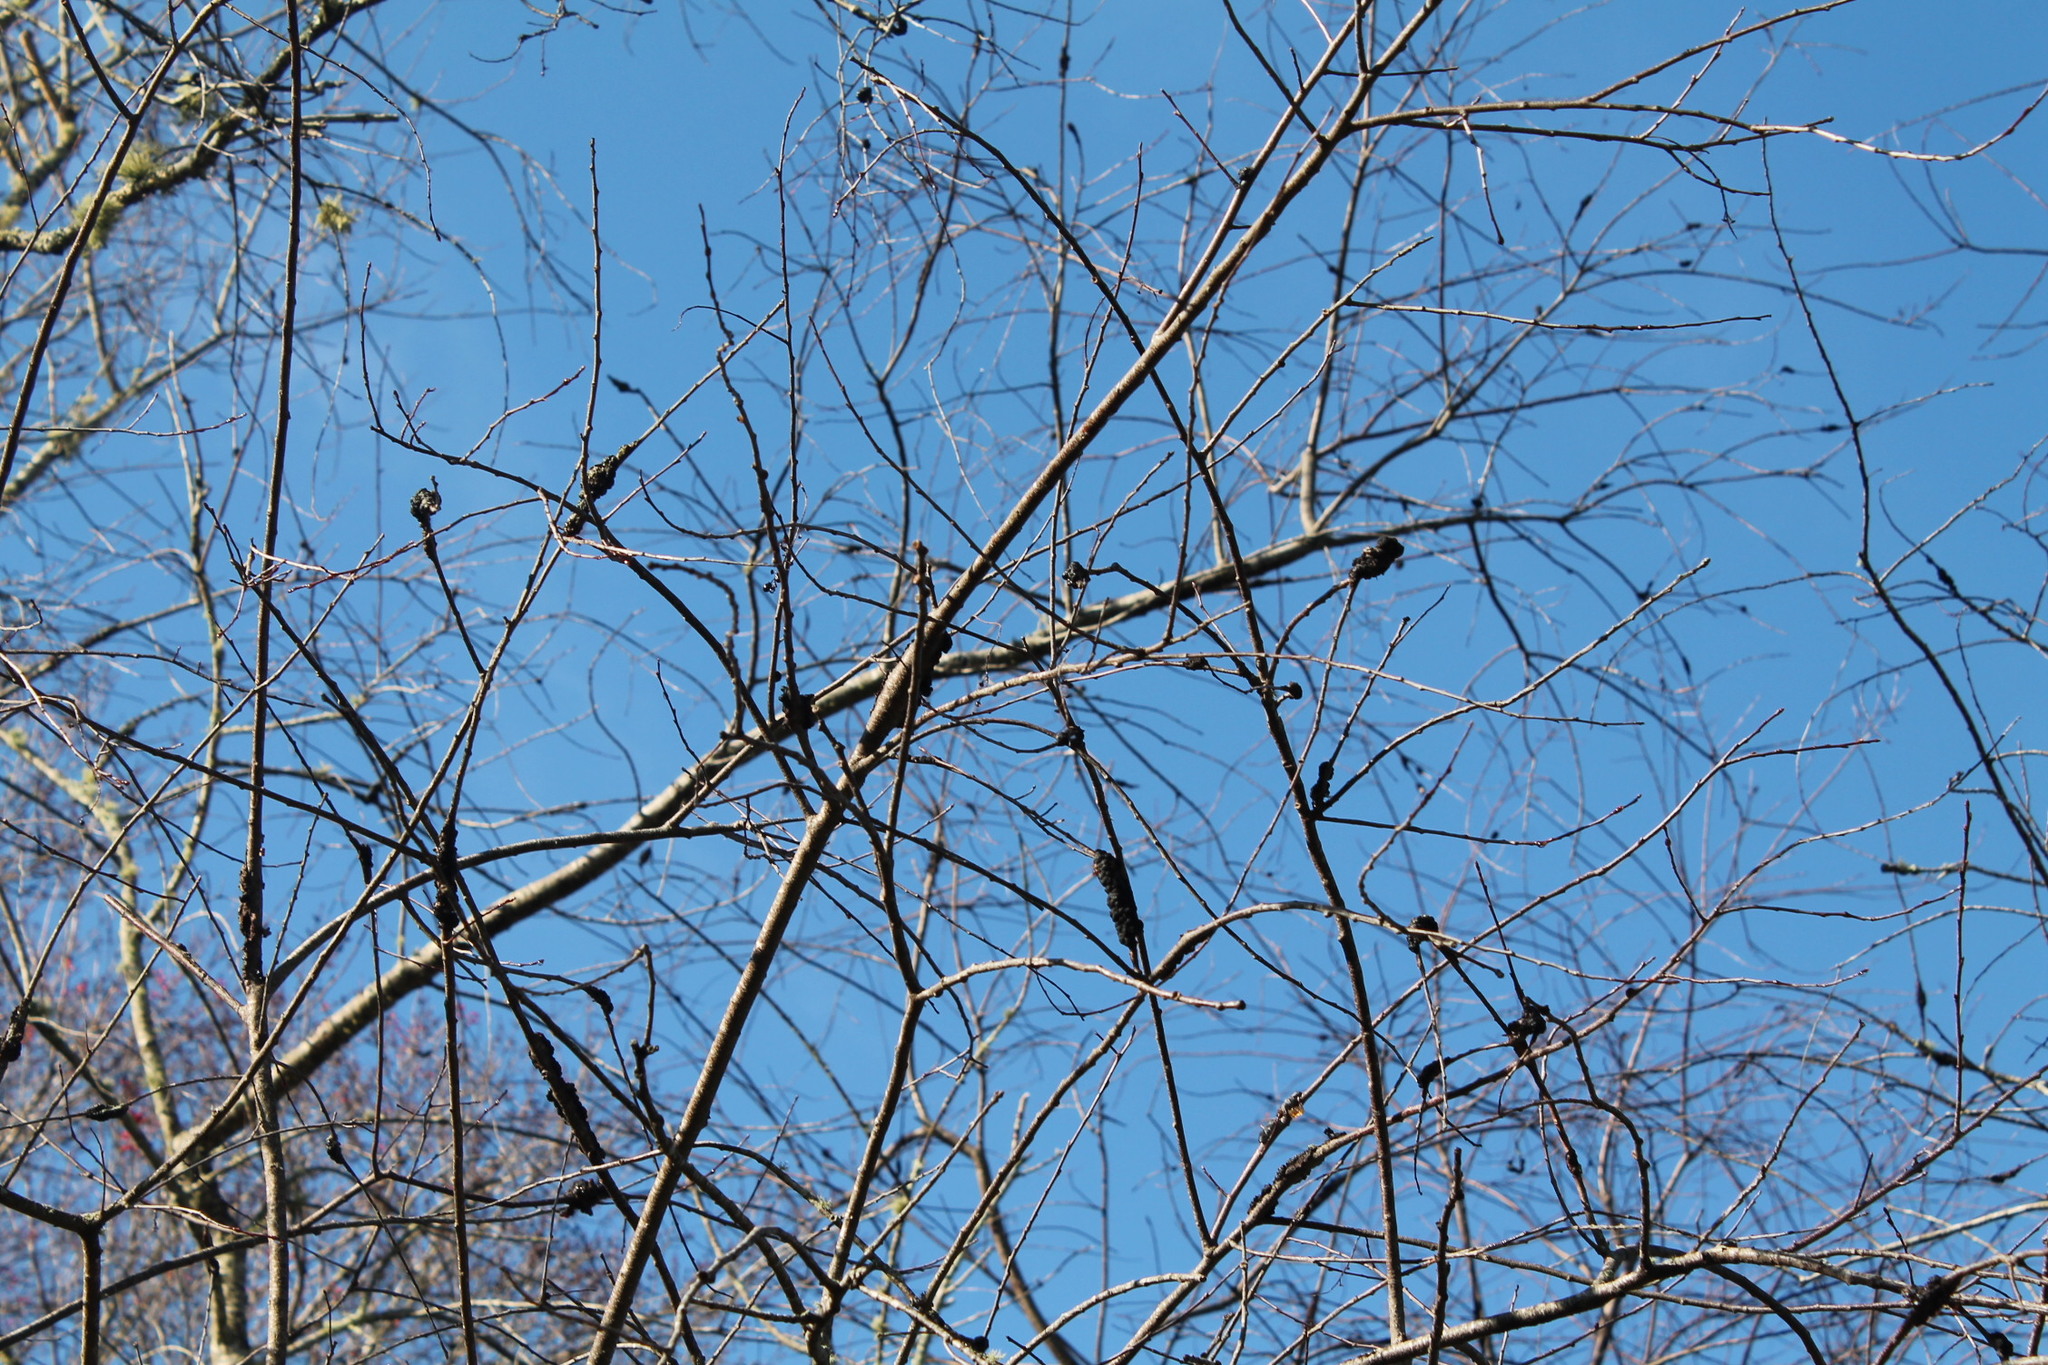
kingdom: Fungi
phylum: Ascomycota
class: Dothideomycetes
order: Venturiales
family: Venturiaceae
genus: Apiosporina
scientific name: Apiosporina morbosa
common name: Black knot
